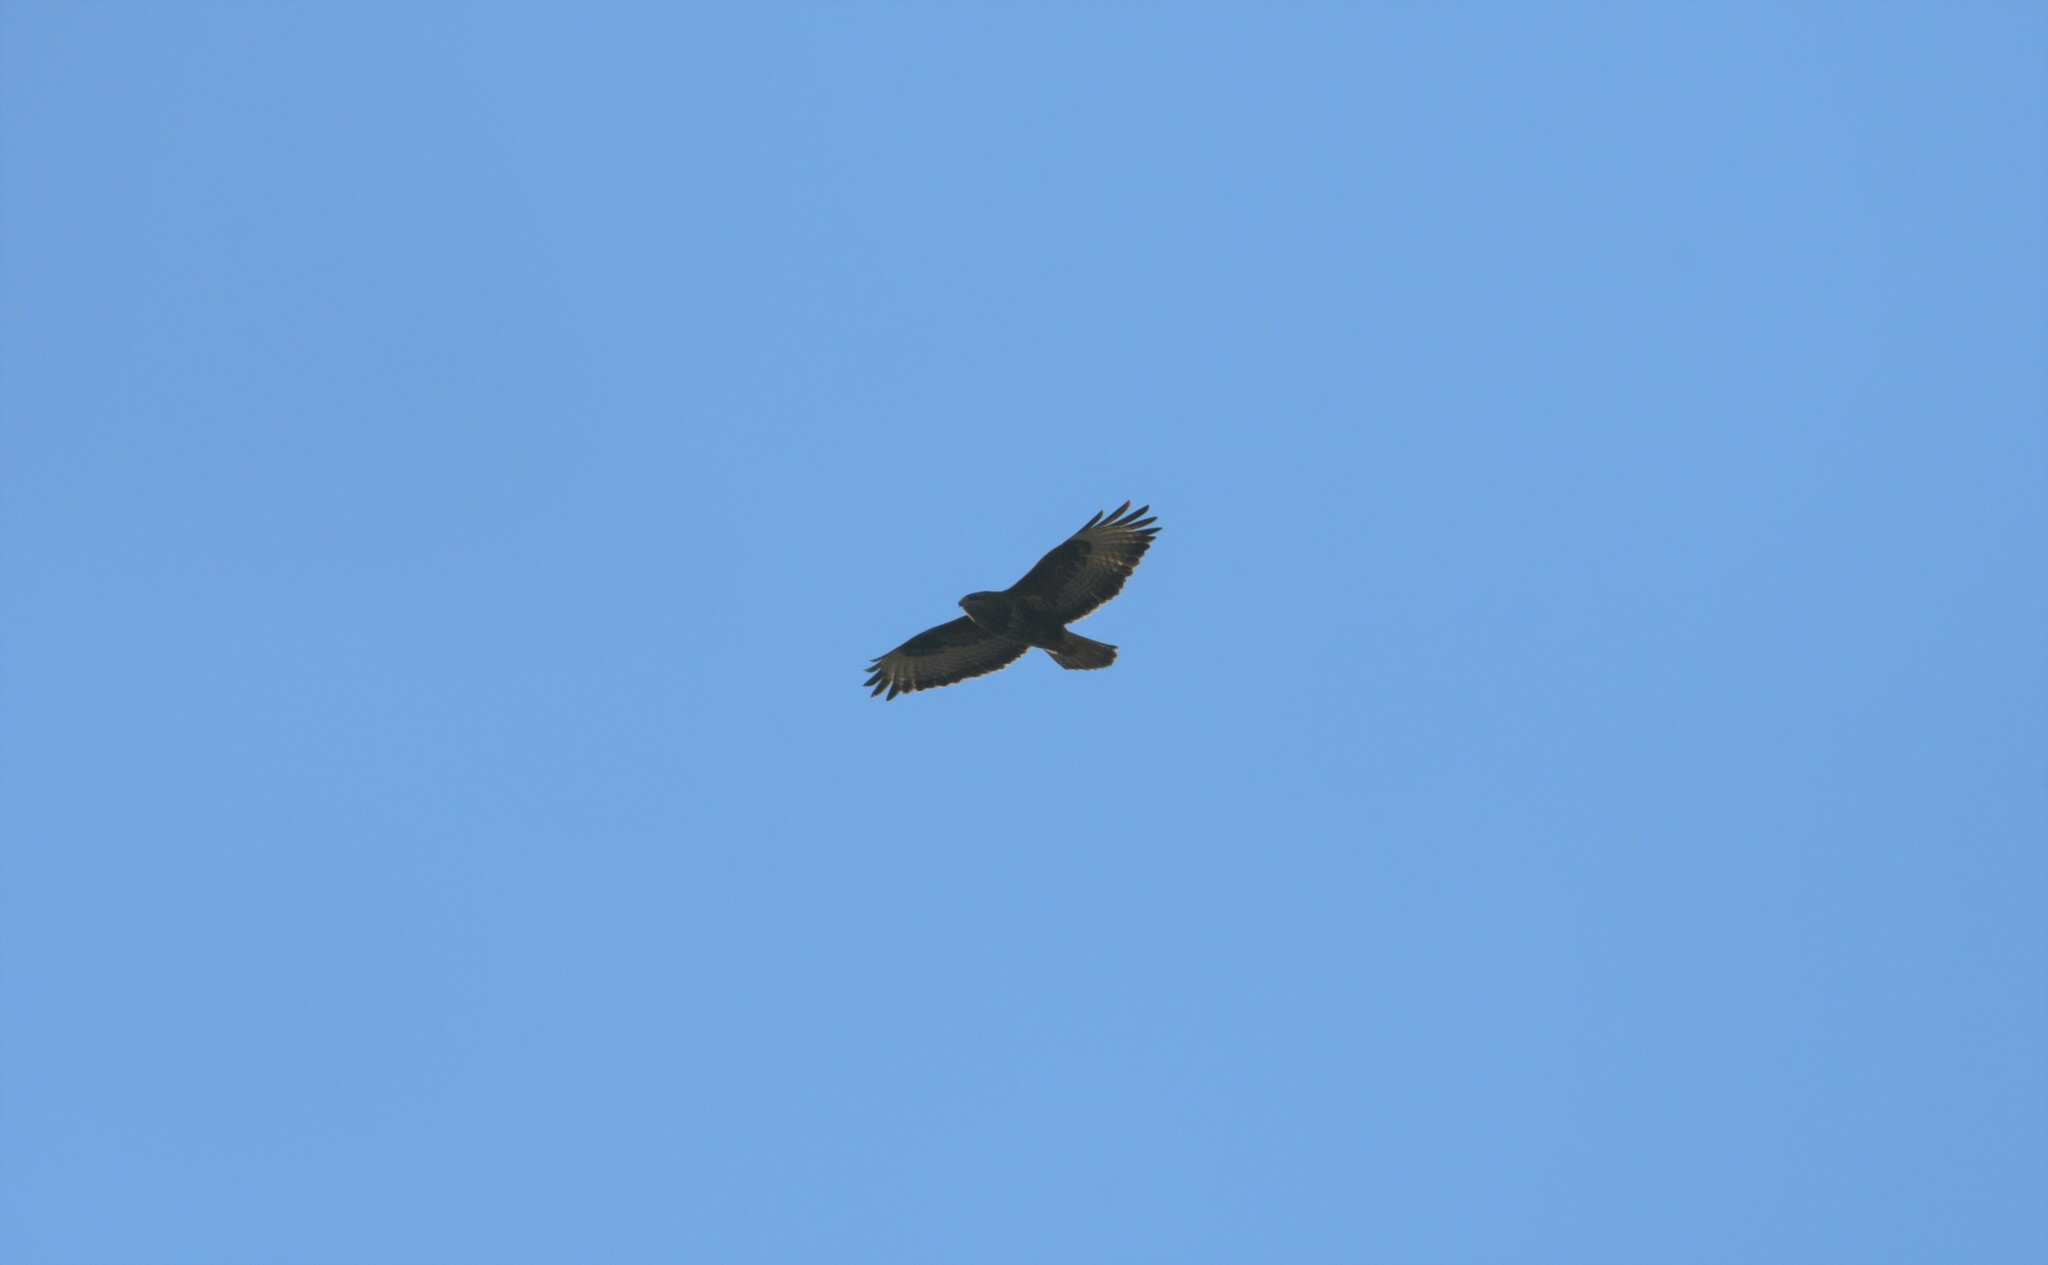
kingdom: Animalia
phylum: Chordata
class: Aves
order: Accipitriformes
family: Accipitridae
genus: Buteo
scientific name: Buteo buteo
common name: Common buzzard
